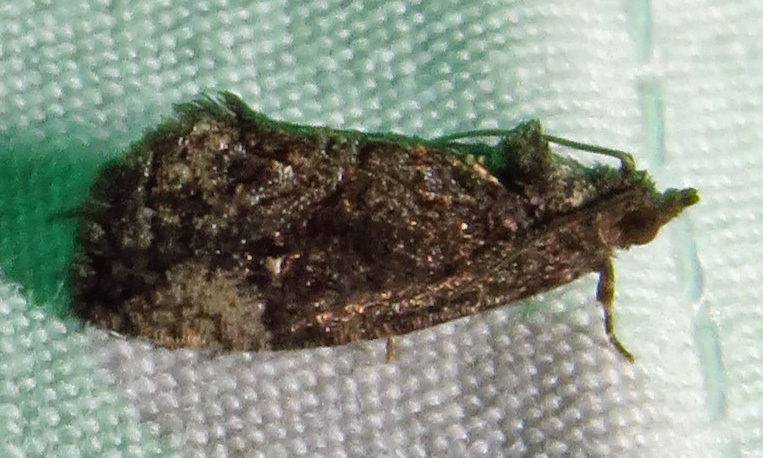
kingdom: Animalia
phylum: Arthropoda
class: Insecta
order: Lepidoptera
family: Tortricidae
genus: Gymnandrosoma
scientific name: Gymnandrosoma punctidiscanum
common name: Dotted ecdytolopha moth
